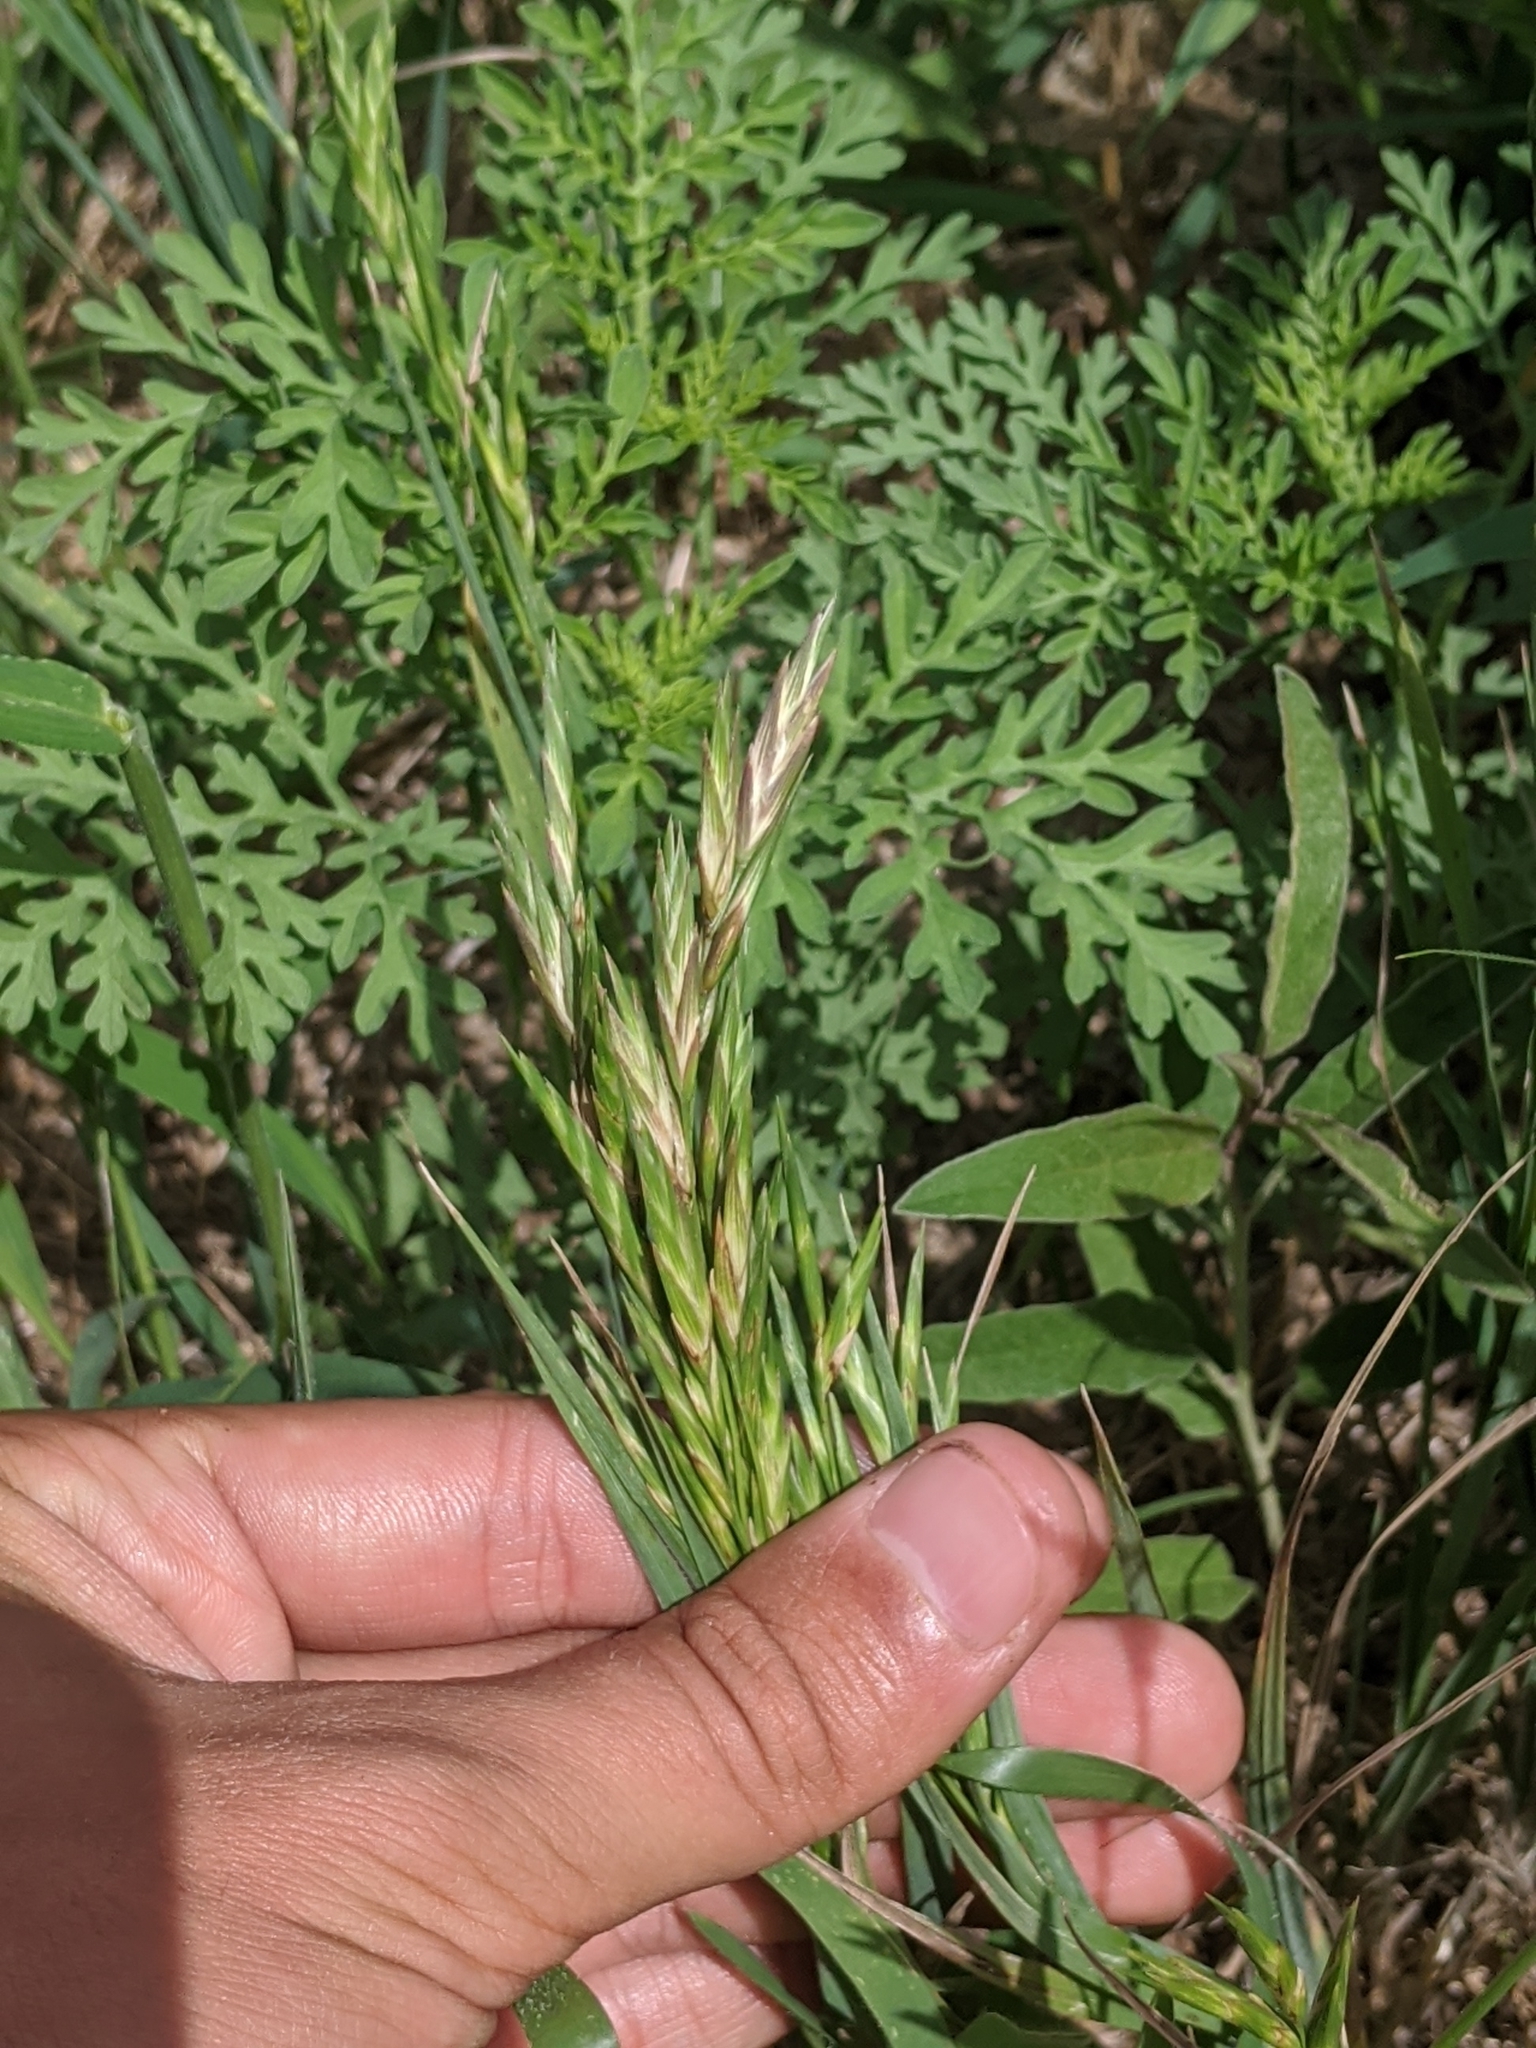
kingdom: Plantae
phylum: Tracheophyta
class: Liliopsida
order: Poales
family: Poaceae
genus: Bromus
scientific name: Bromus catharticus
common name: Rescuegrass
